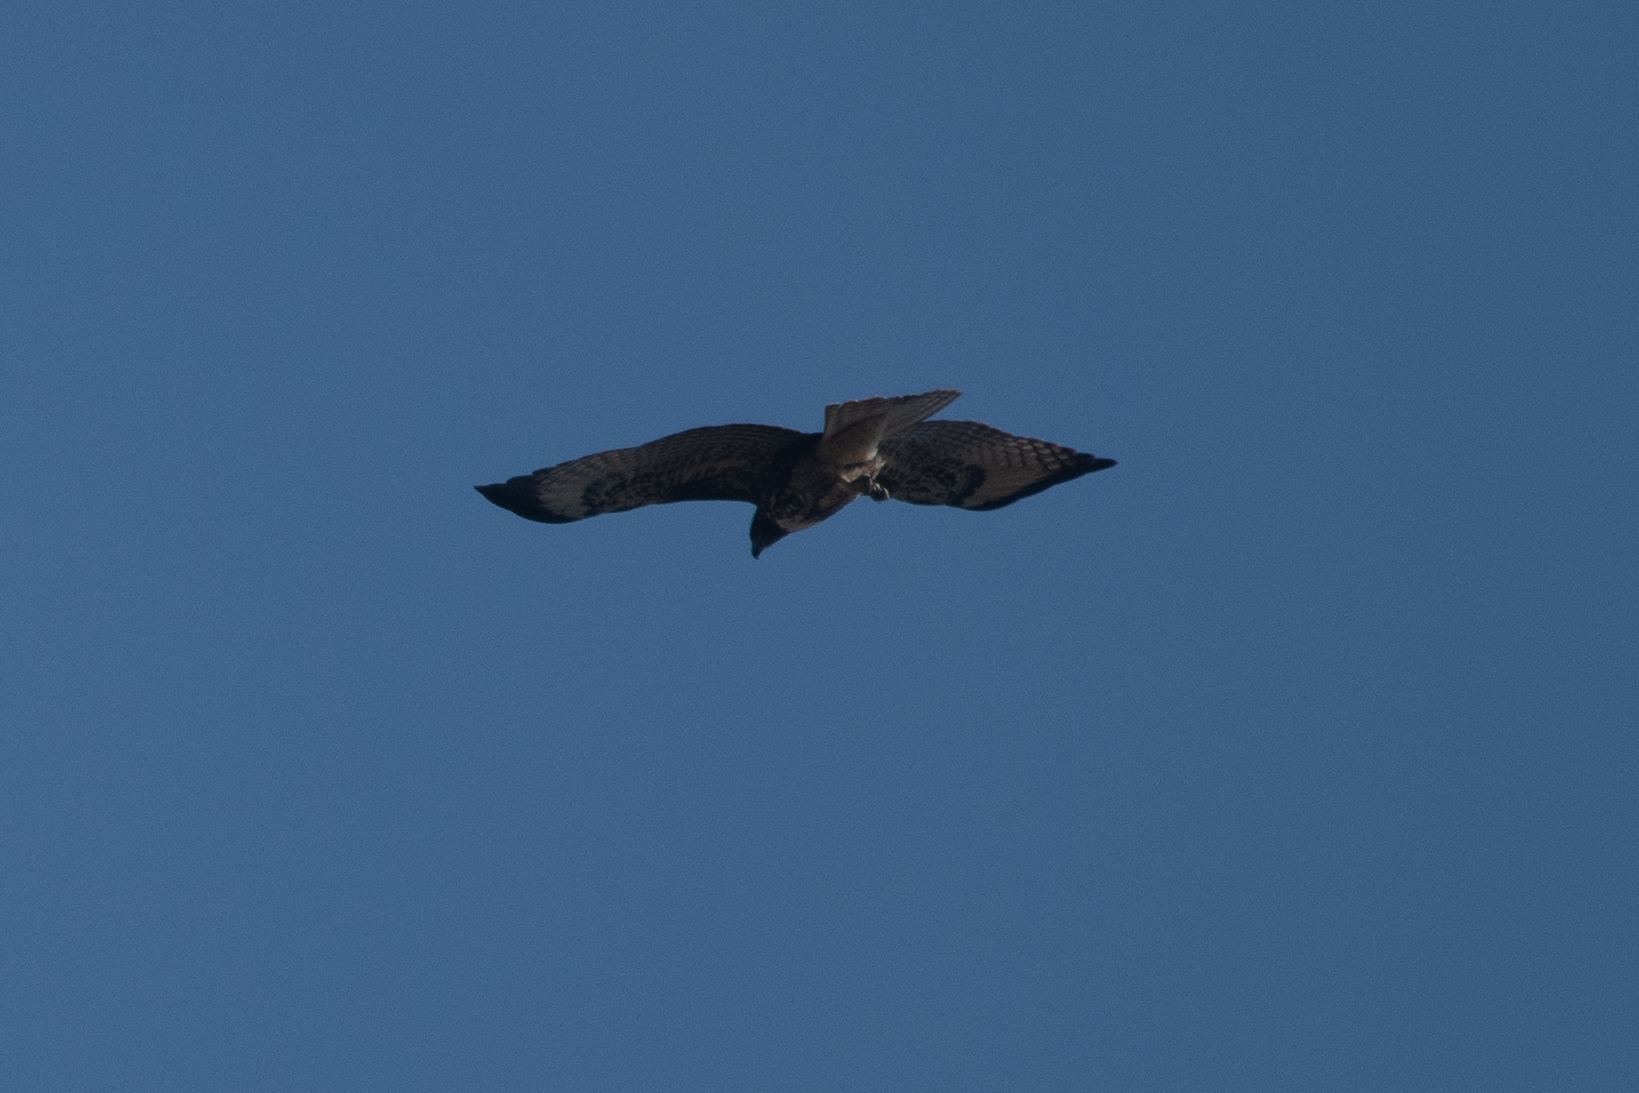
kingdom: Animalia
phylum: Chordata
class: Aves
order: Accipitriformes
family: Accipitridae
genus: Buteo
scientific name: Buteo jamaicensis
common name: Red-tailed hawk
